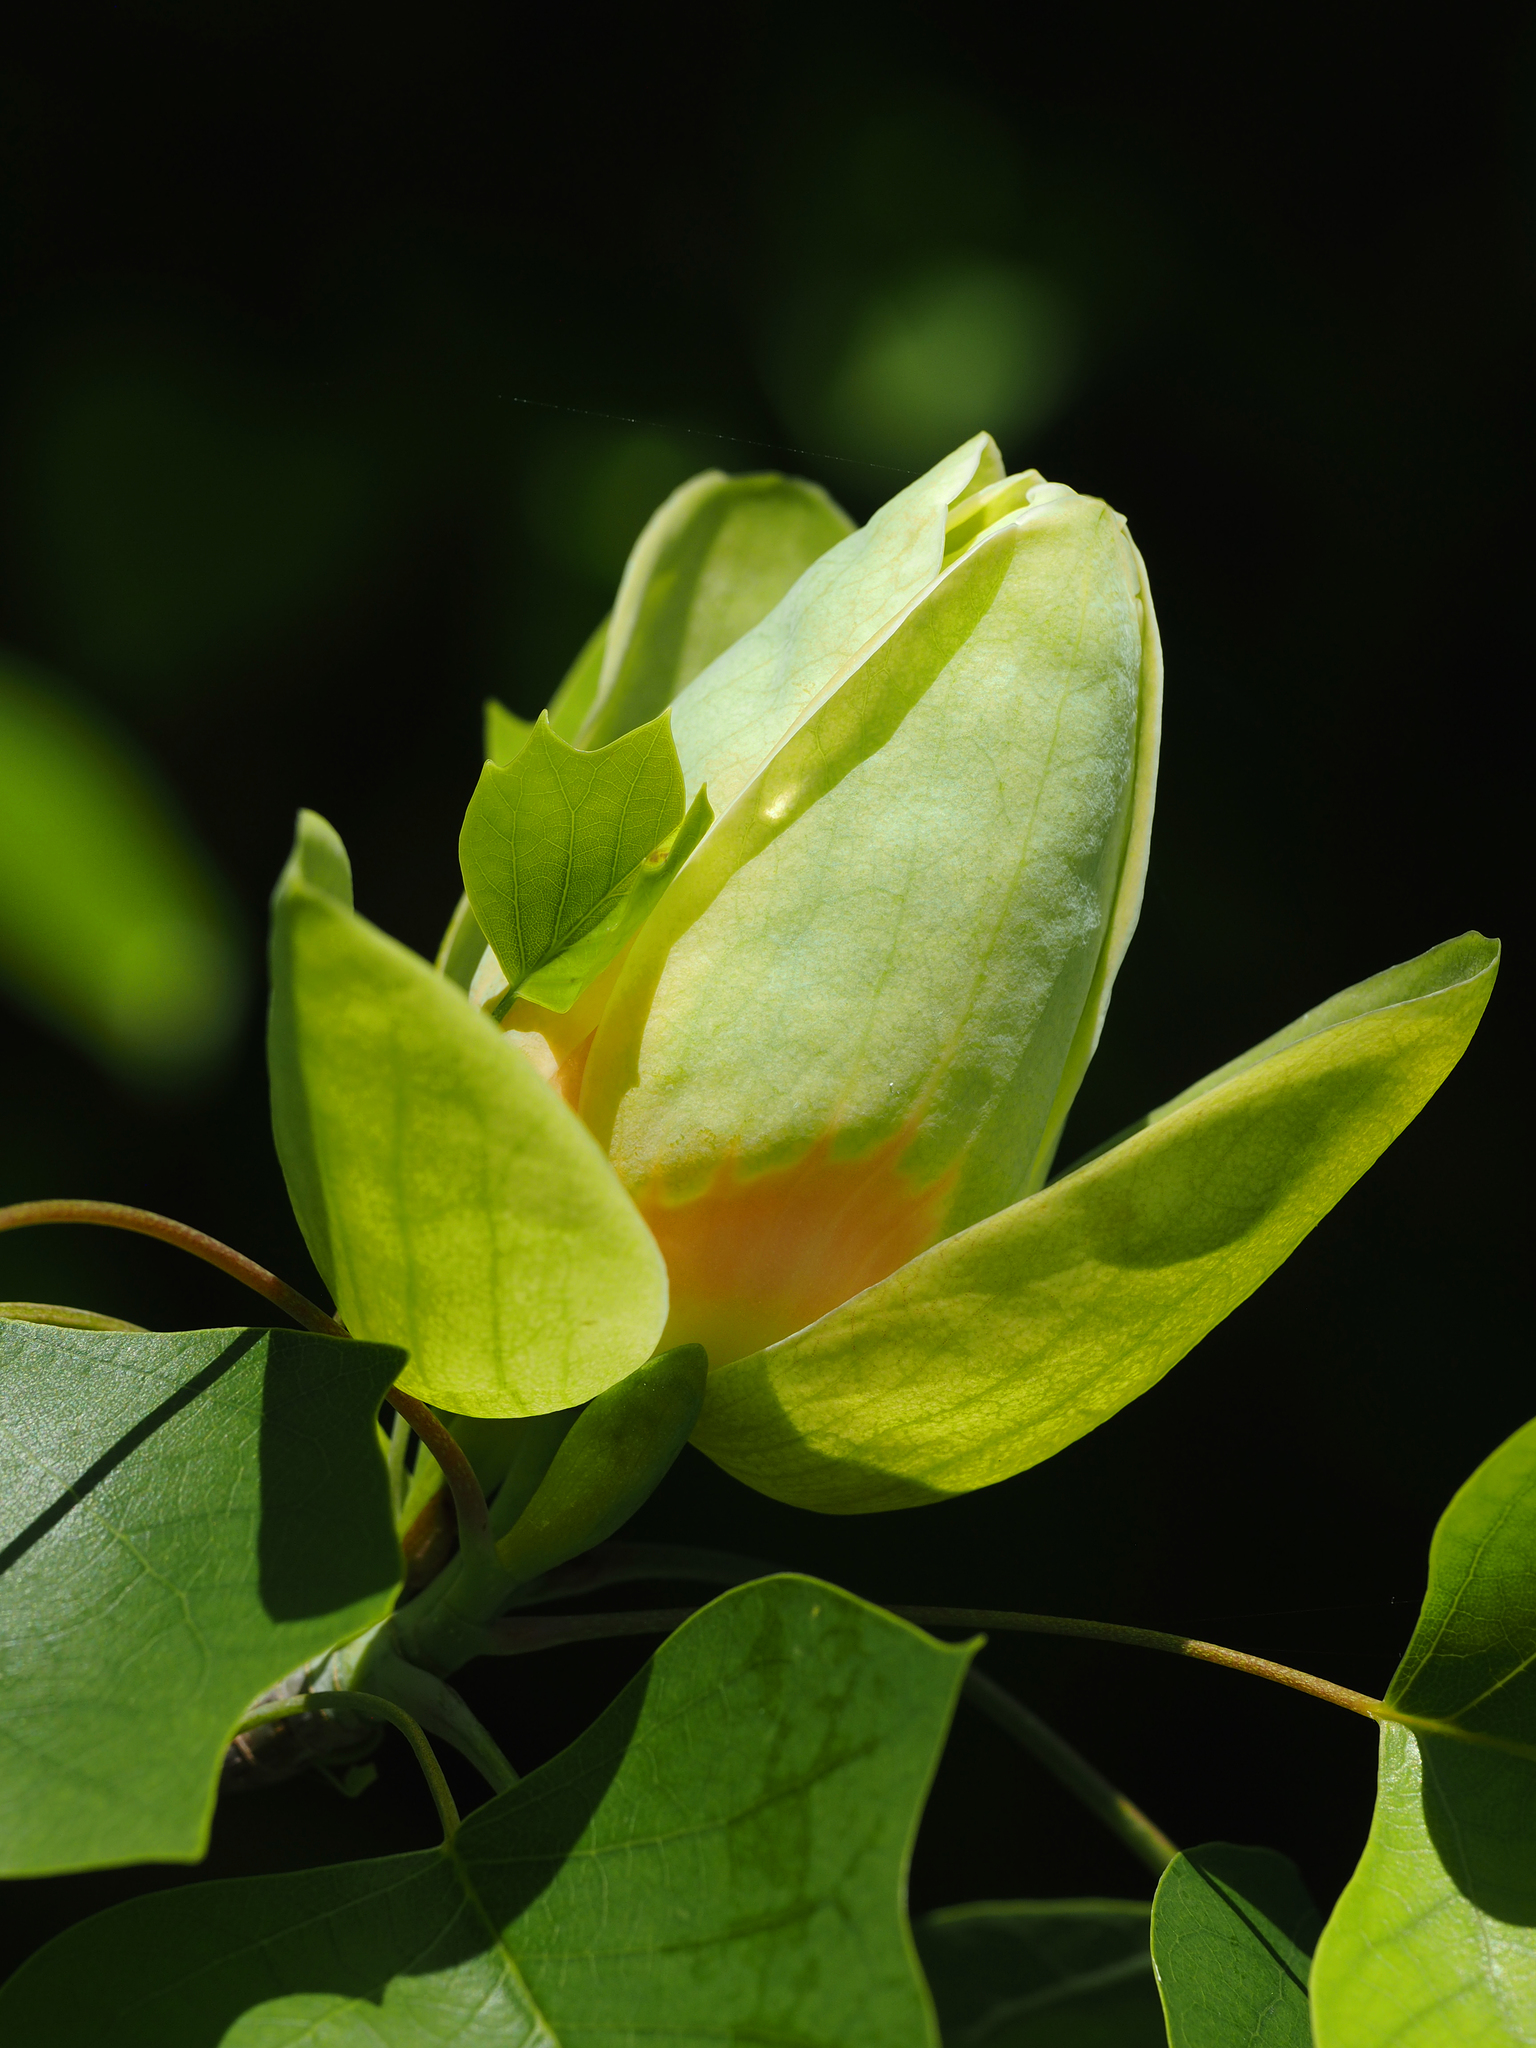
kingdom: Plantae
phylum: Tracheophyta
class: Magnoliopsida
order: Magnoliales
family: Magnoliaceae
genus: Liriodendron
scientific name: Liriodendron tulipifera
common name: Tulip tree
